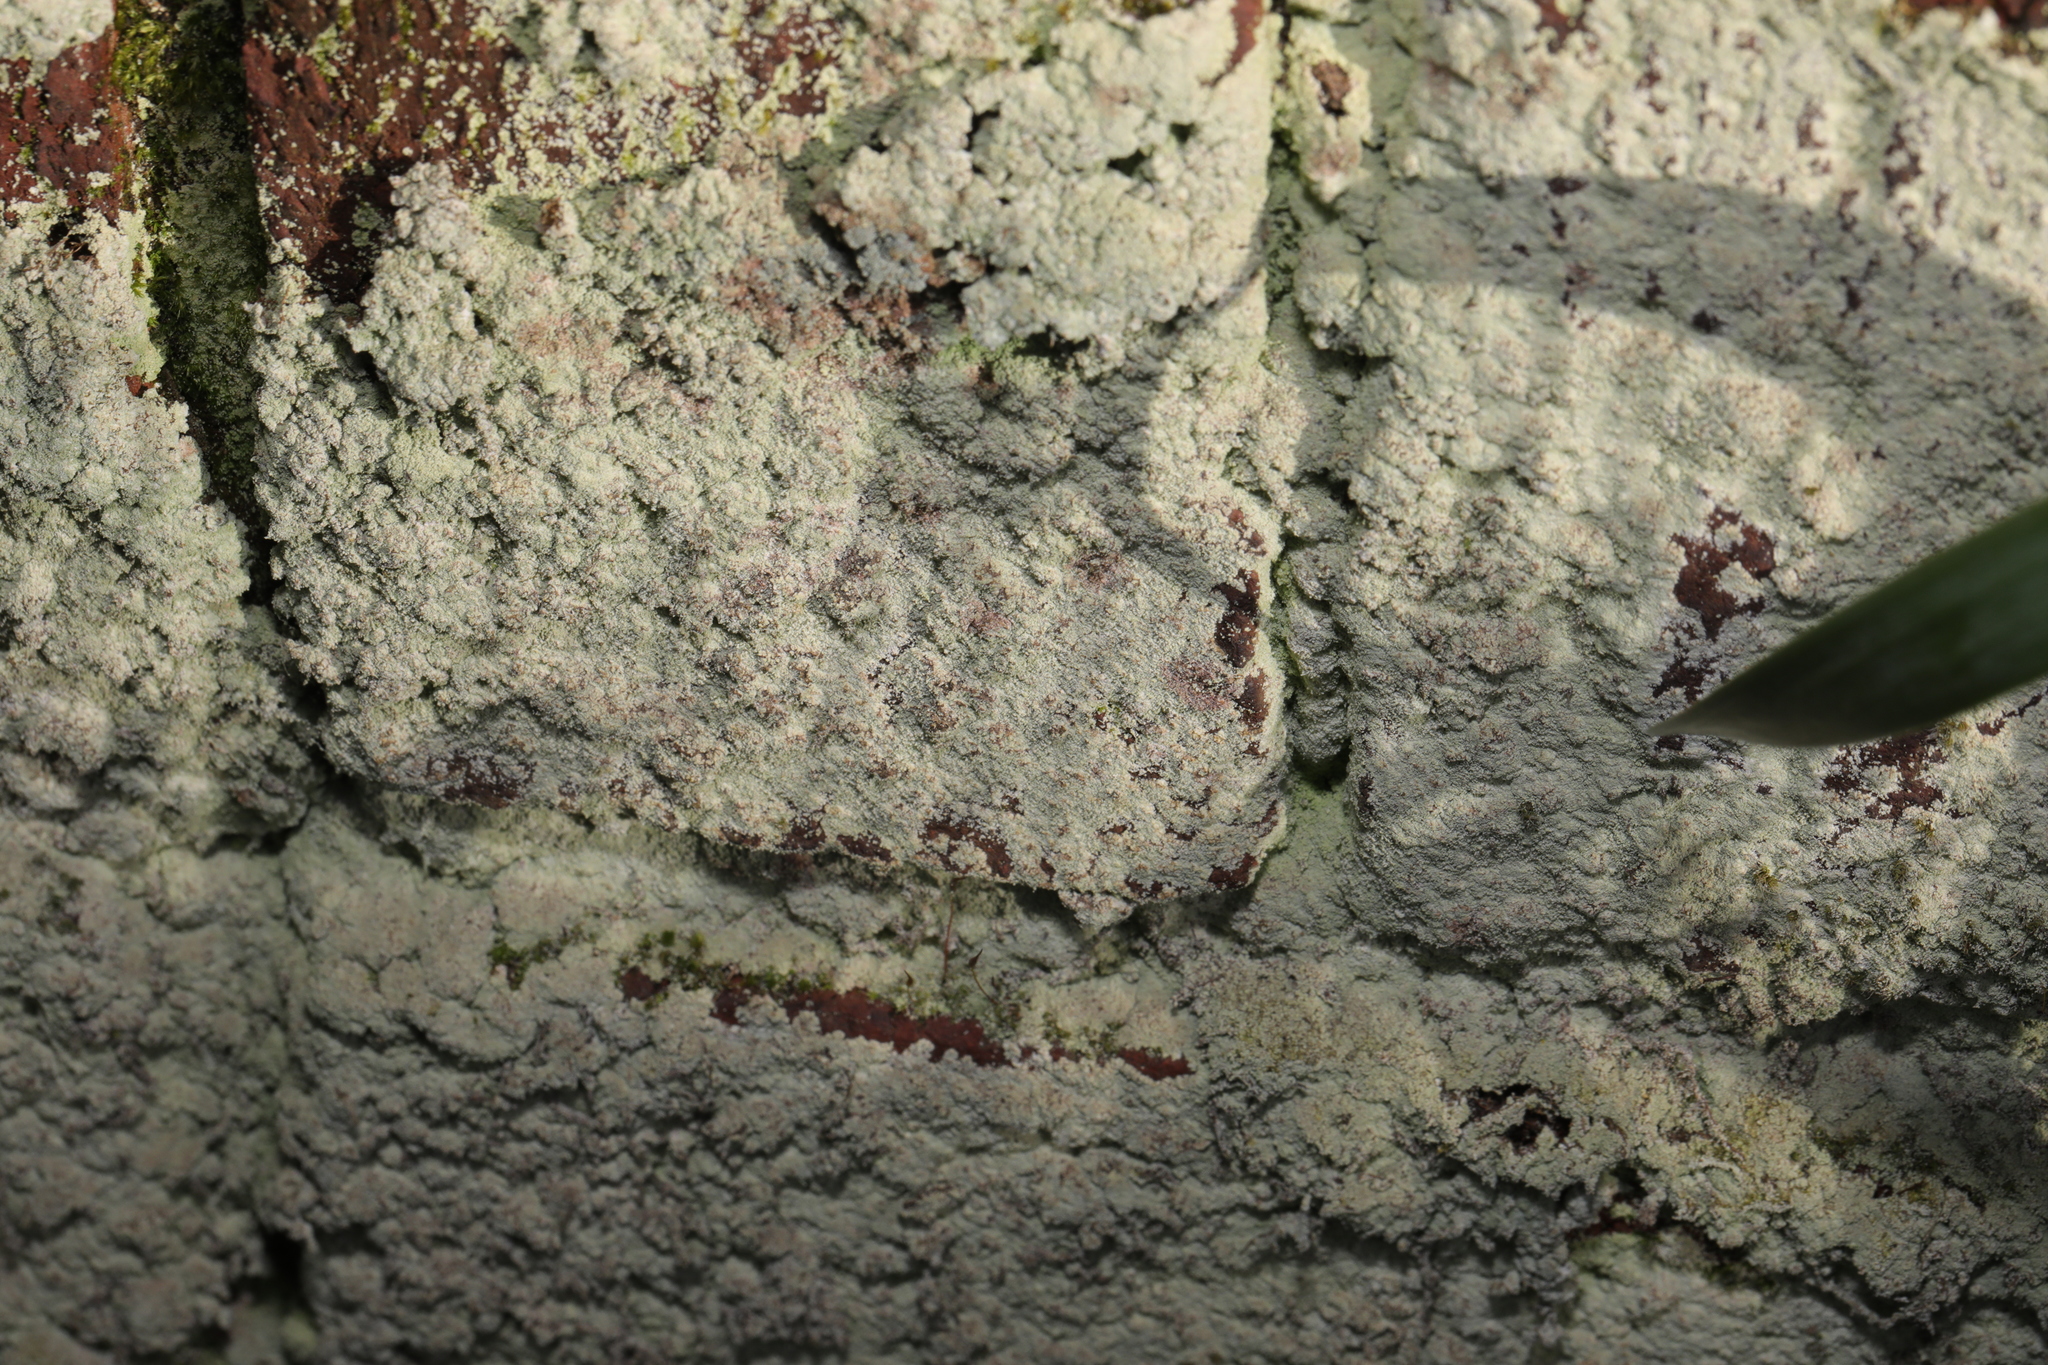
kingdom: Fungi
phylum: Ascomycota
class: Lecanoromycetes
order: Lecanorales
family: Stereocaulaceae
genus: Lepraria
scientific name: Lepraria
